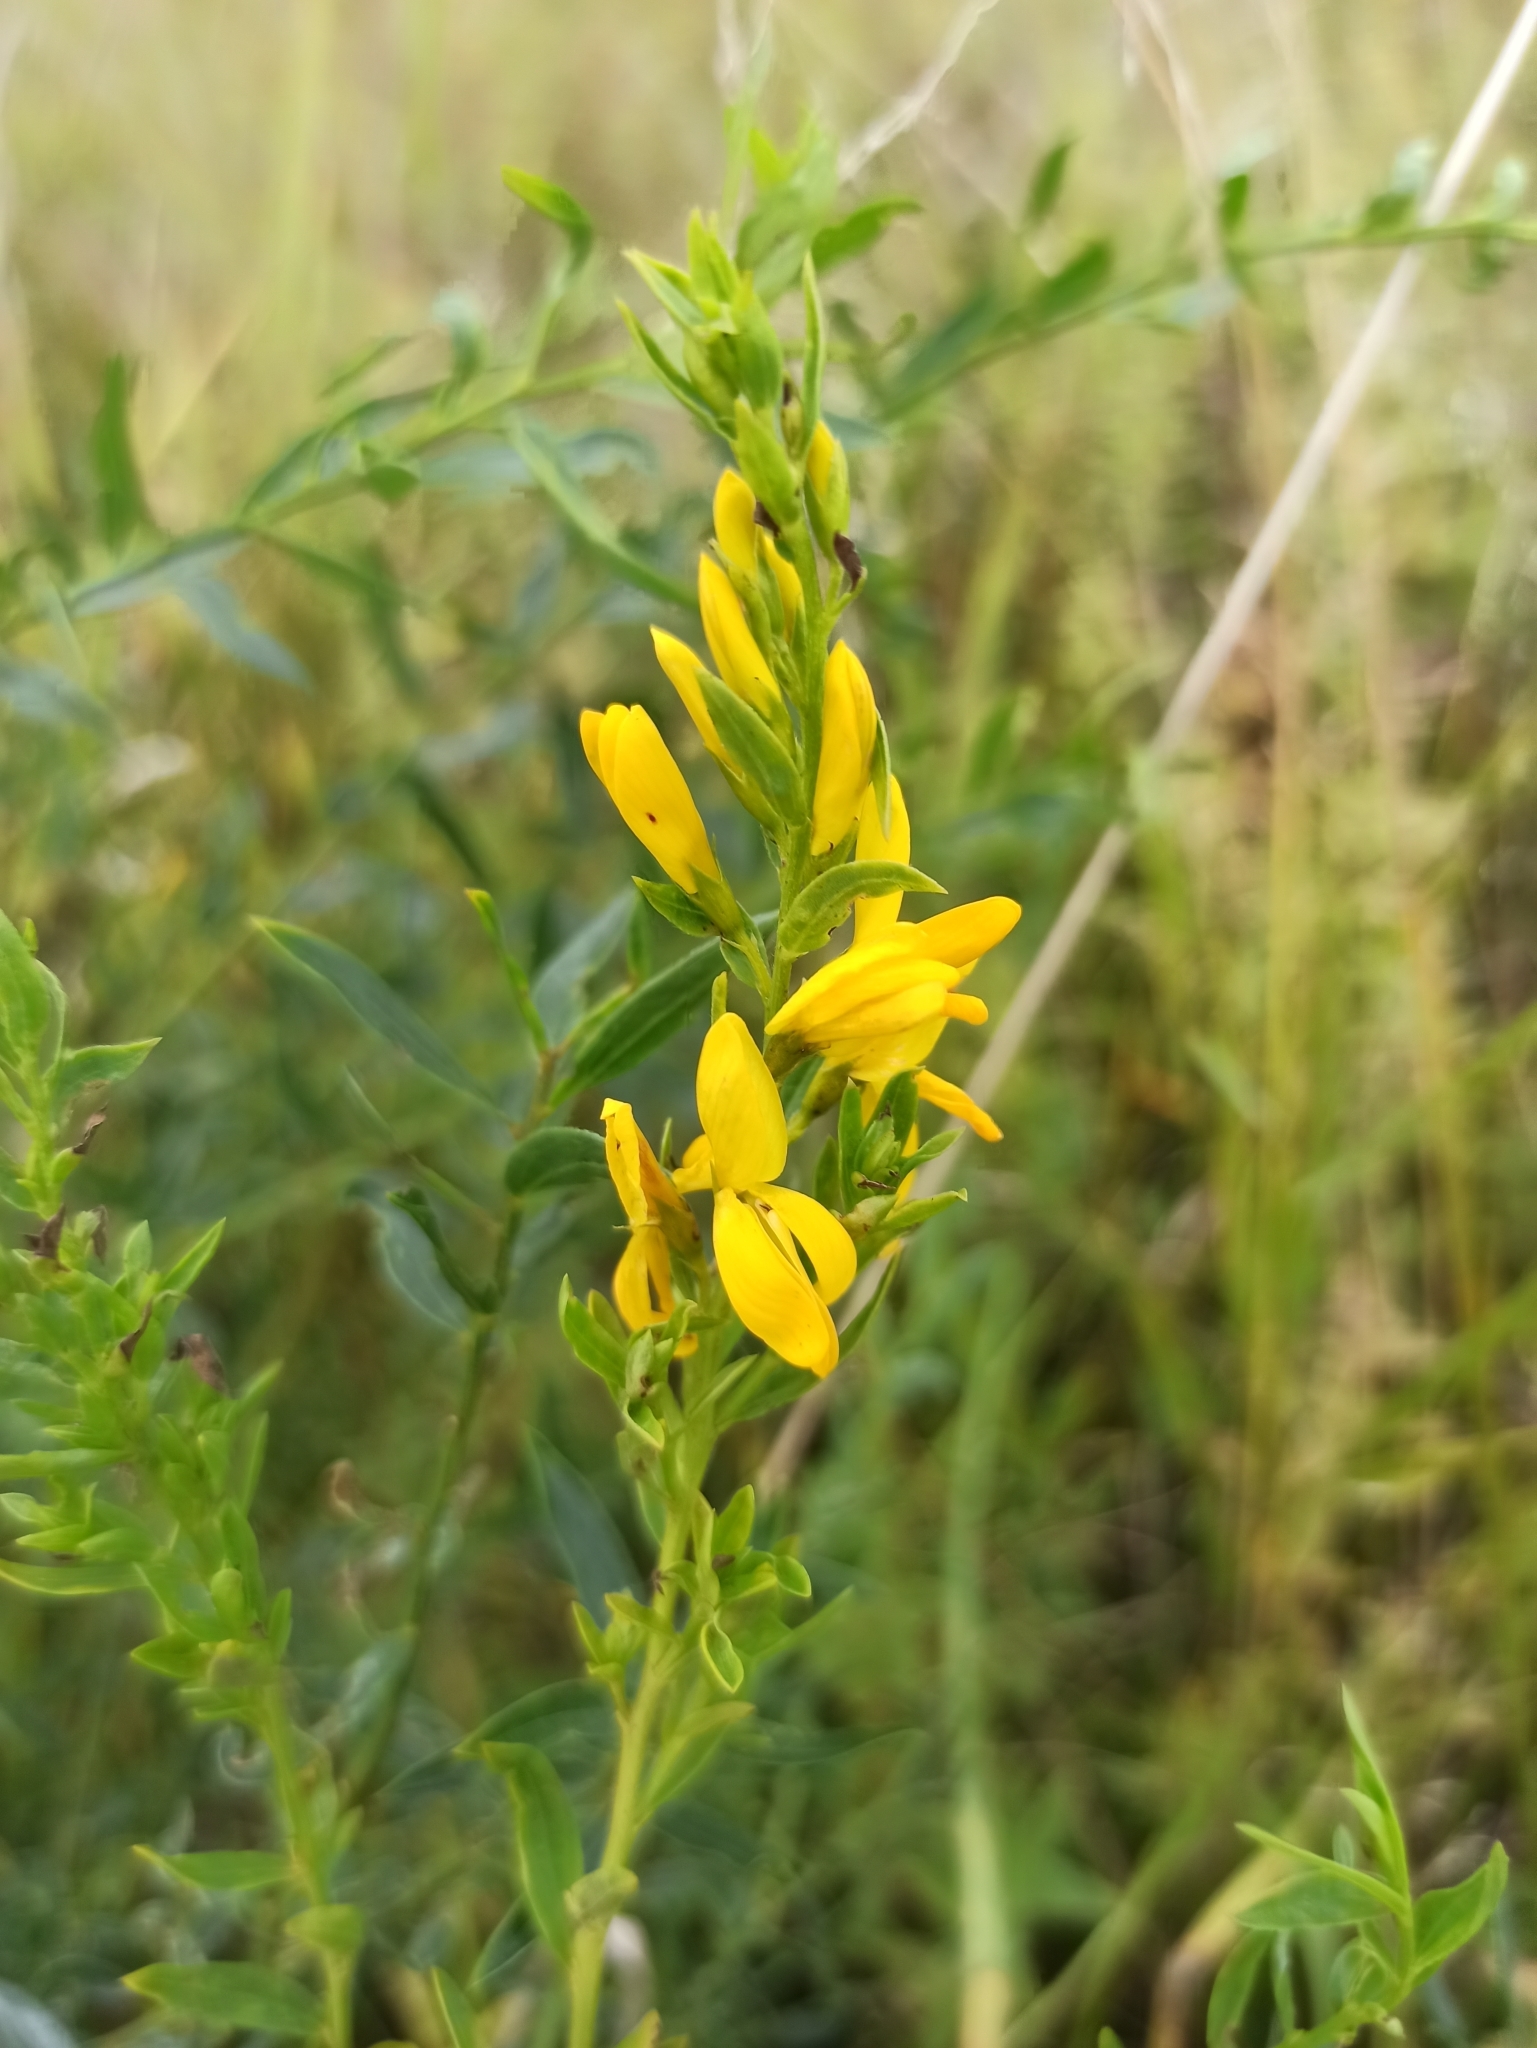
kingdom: Plantae
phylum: Tracheophyta
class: Magnoliopsida
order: Fabales
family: Fabaceae
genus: Genista
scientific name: Genista tinctoria
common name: Dyer's greenweed
